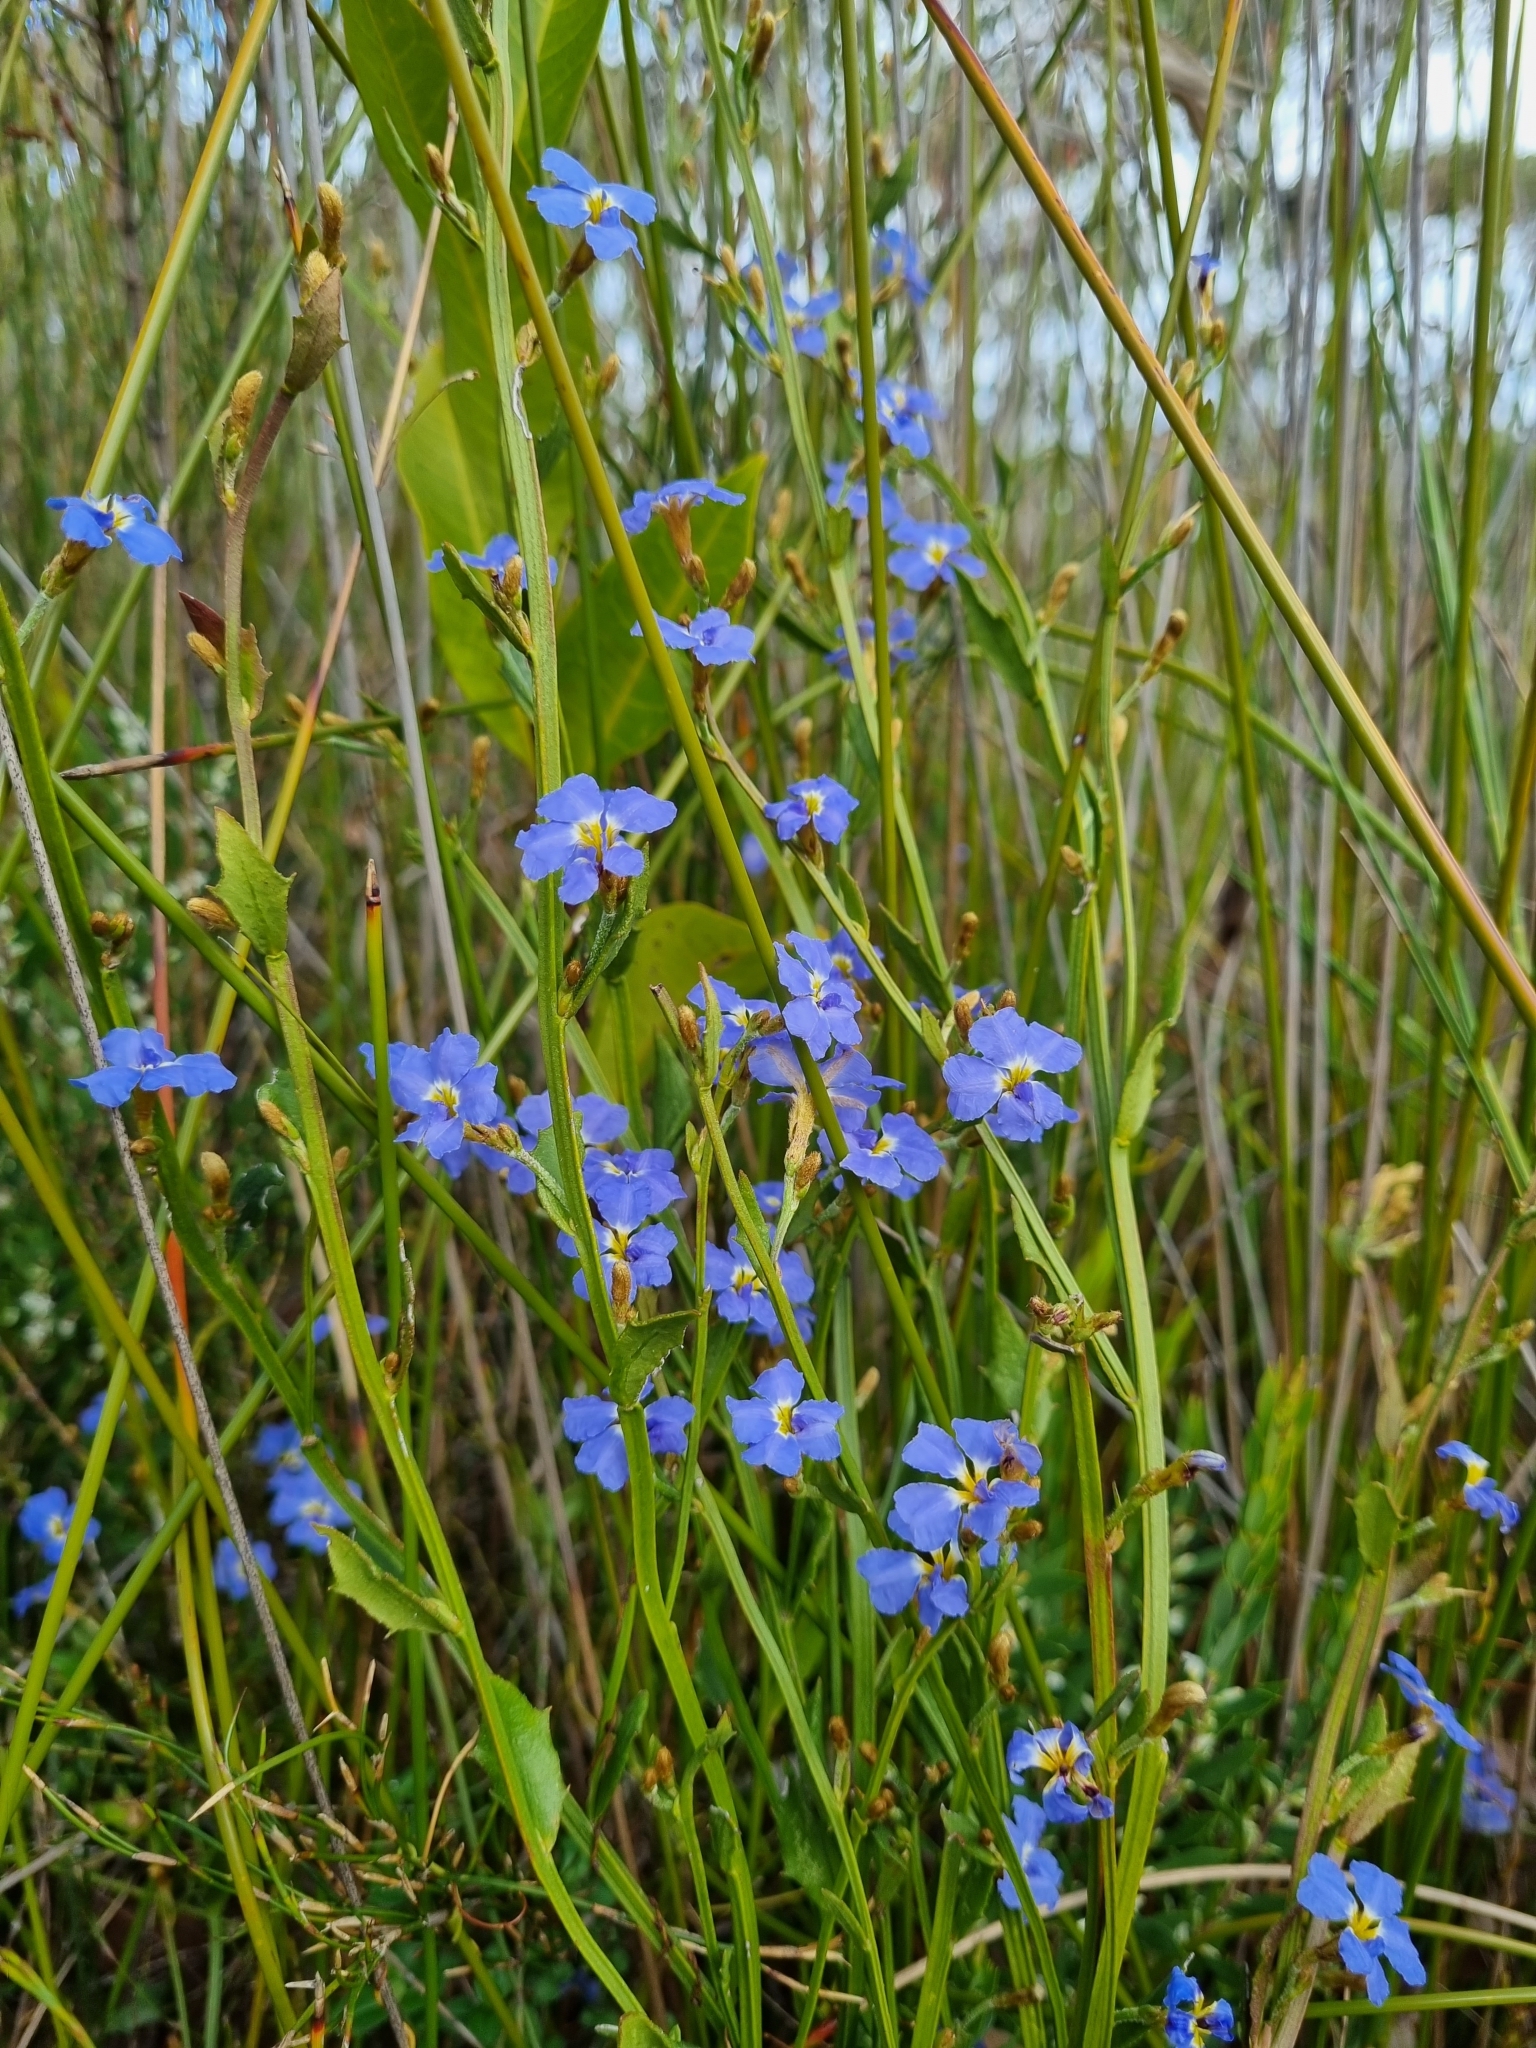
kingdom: Plantae
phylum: Tracheophyta
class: Magnoliopsida
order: Asterales
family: Goodeniaceae
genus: Dampiera
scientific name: Dampiera stricta
